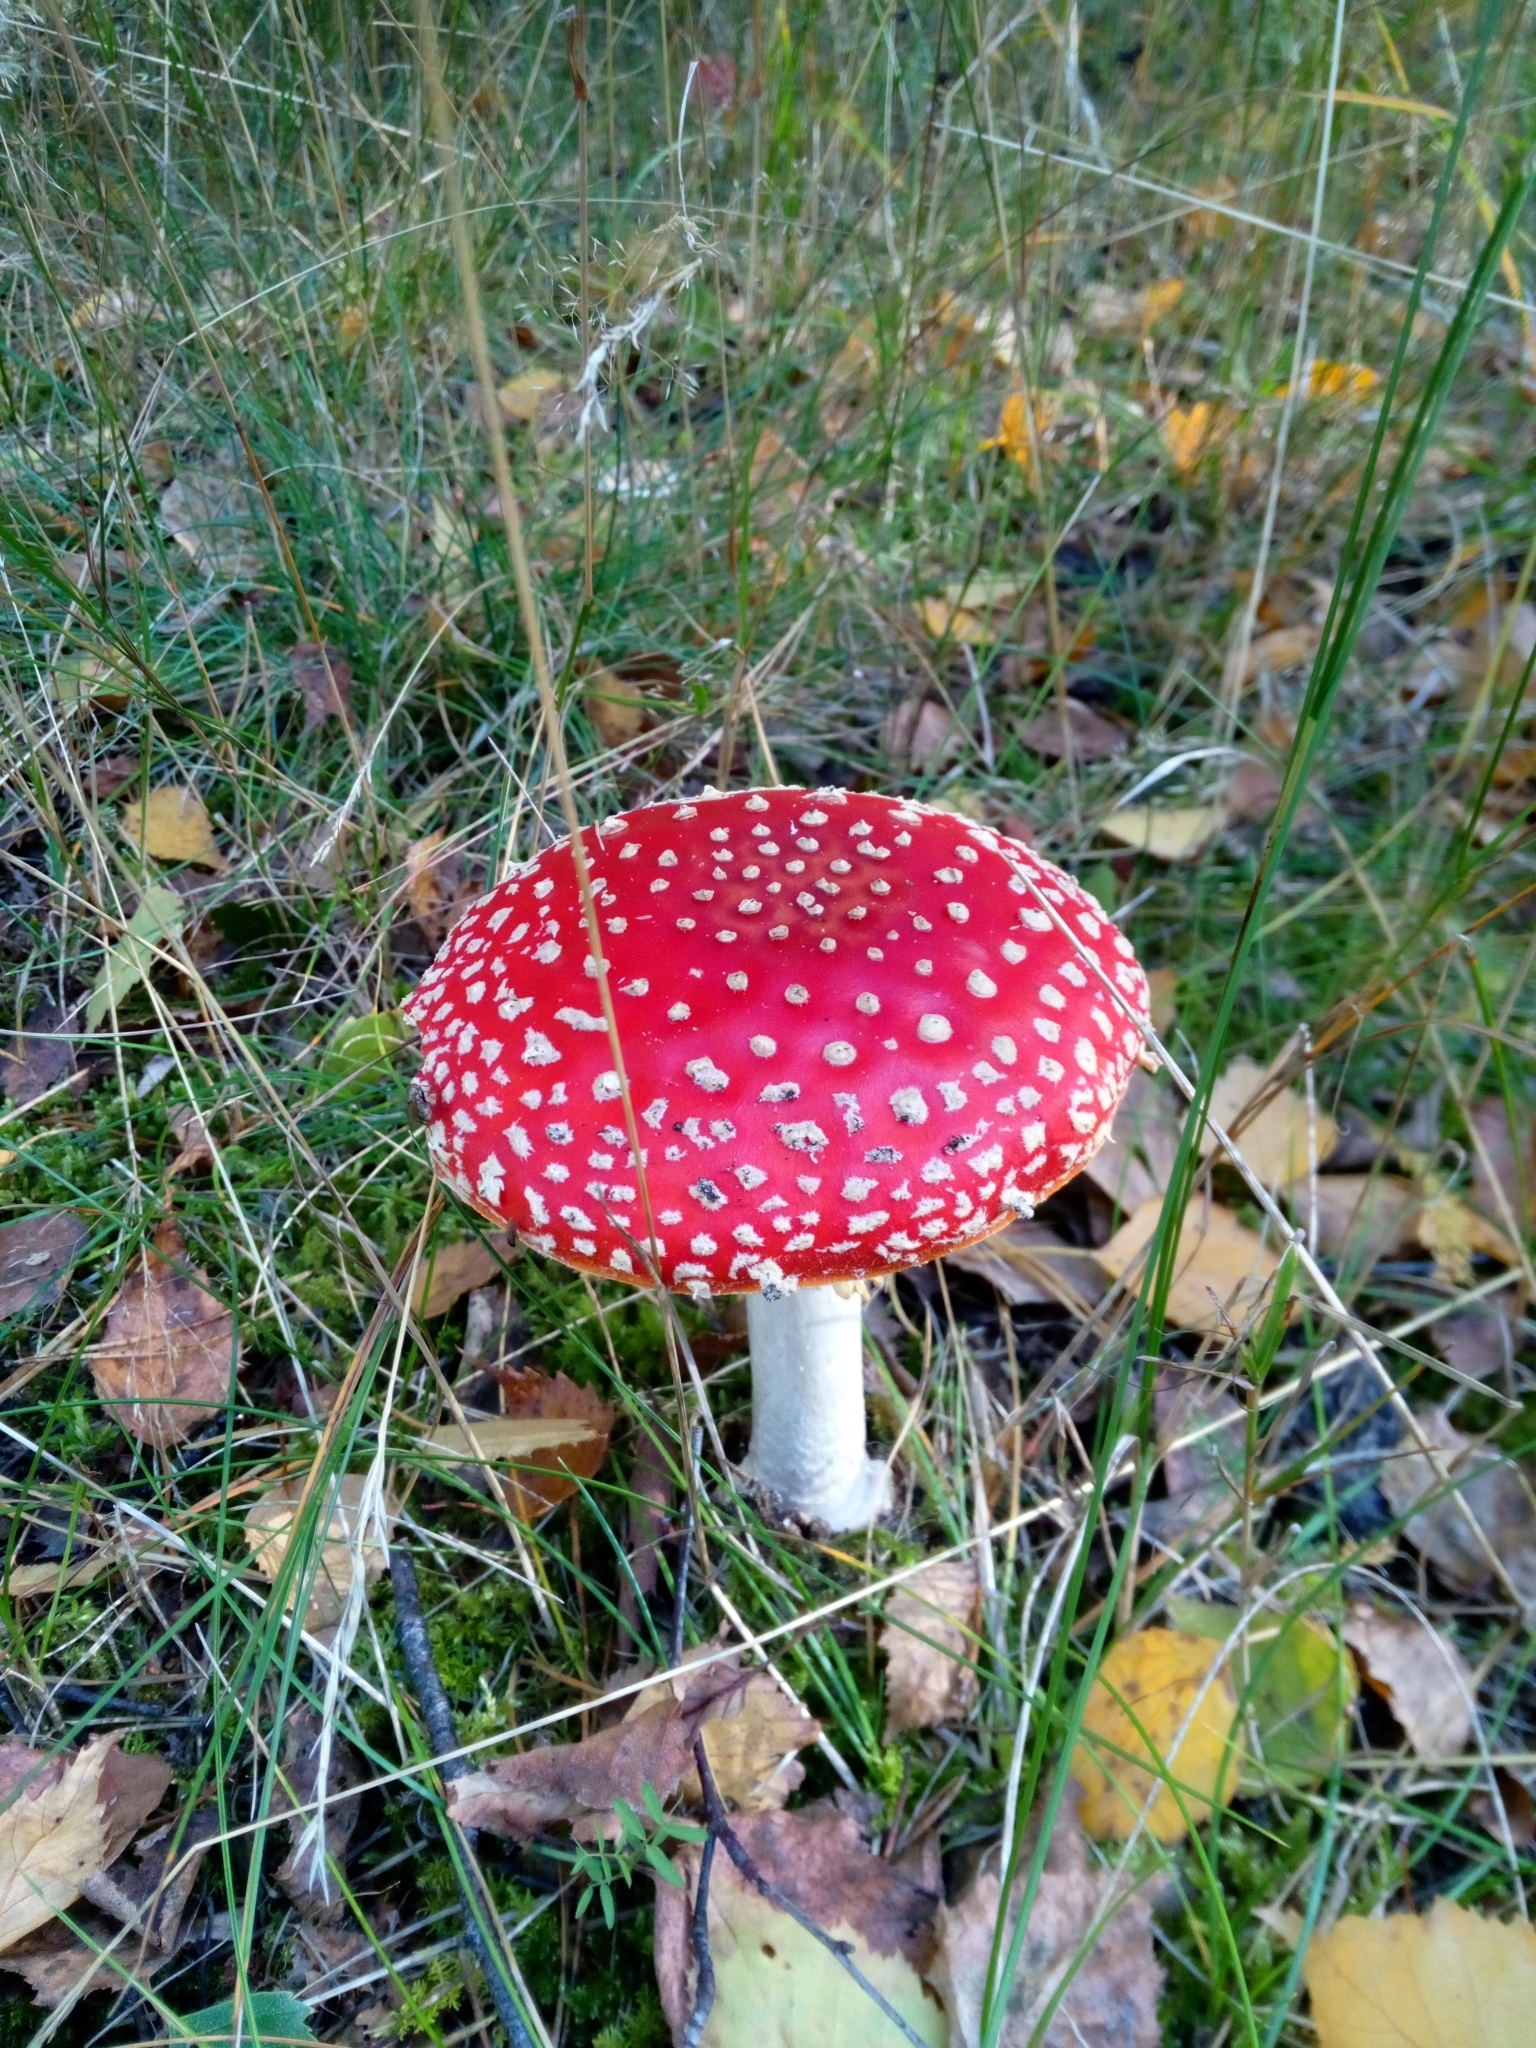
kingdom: Fungi
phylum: Basidiomycota
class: Agaricomycetes
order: Agaricales
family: Amanitaceae
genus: Amanita
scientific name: Amanita muscaria
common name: Fly agaric
